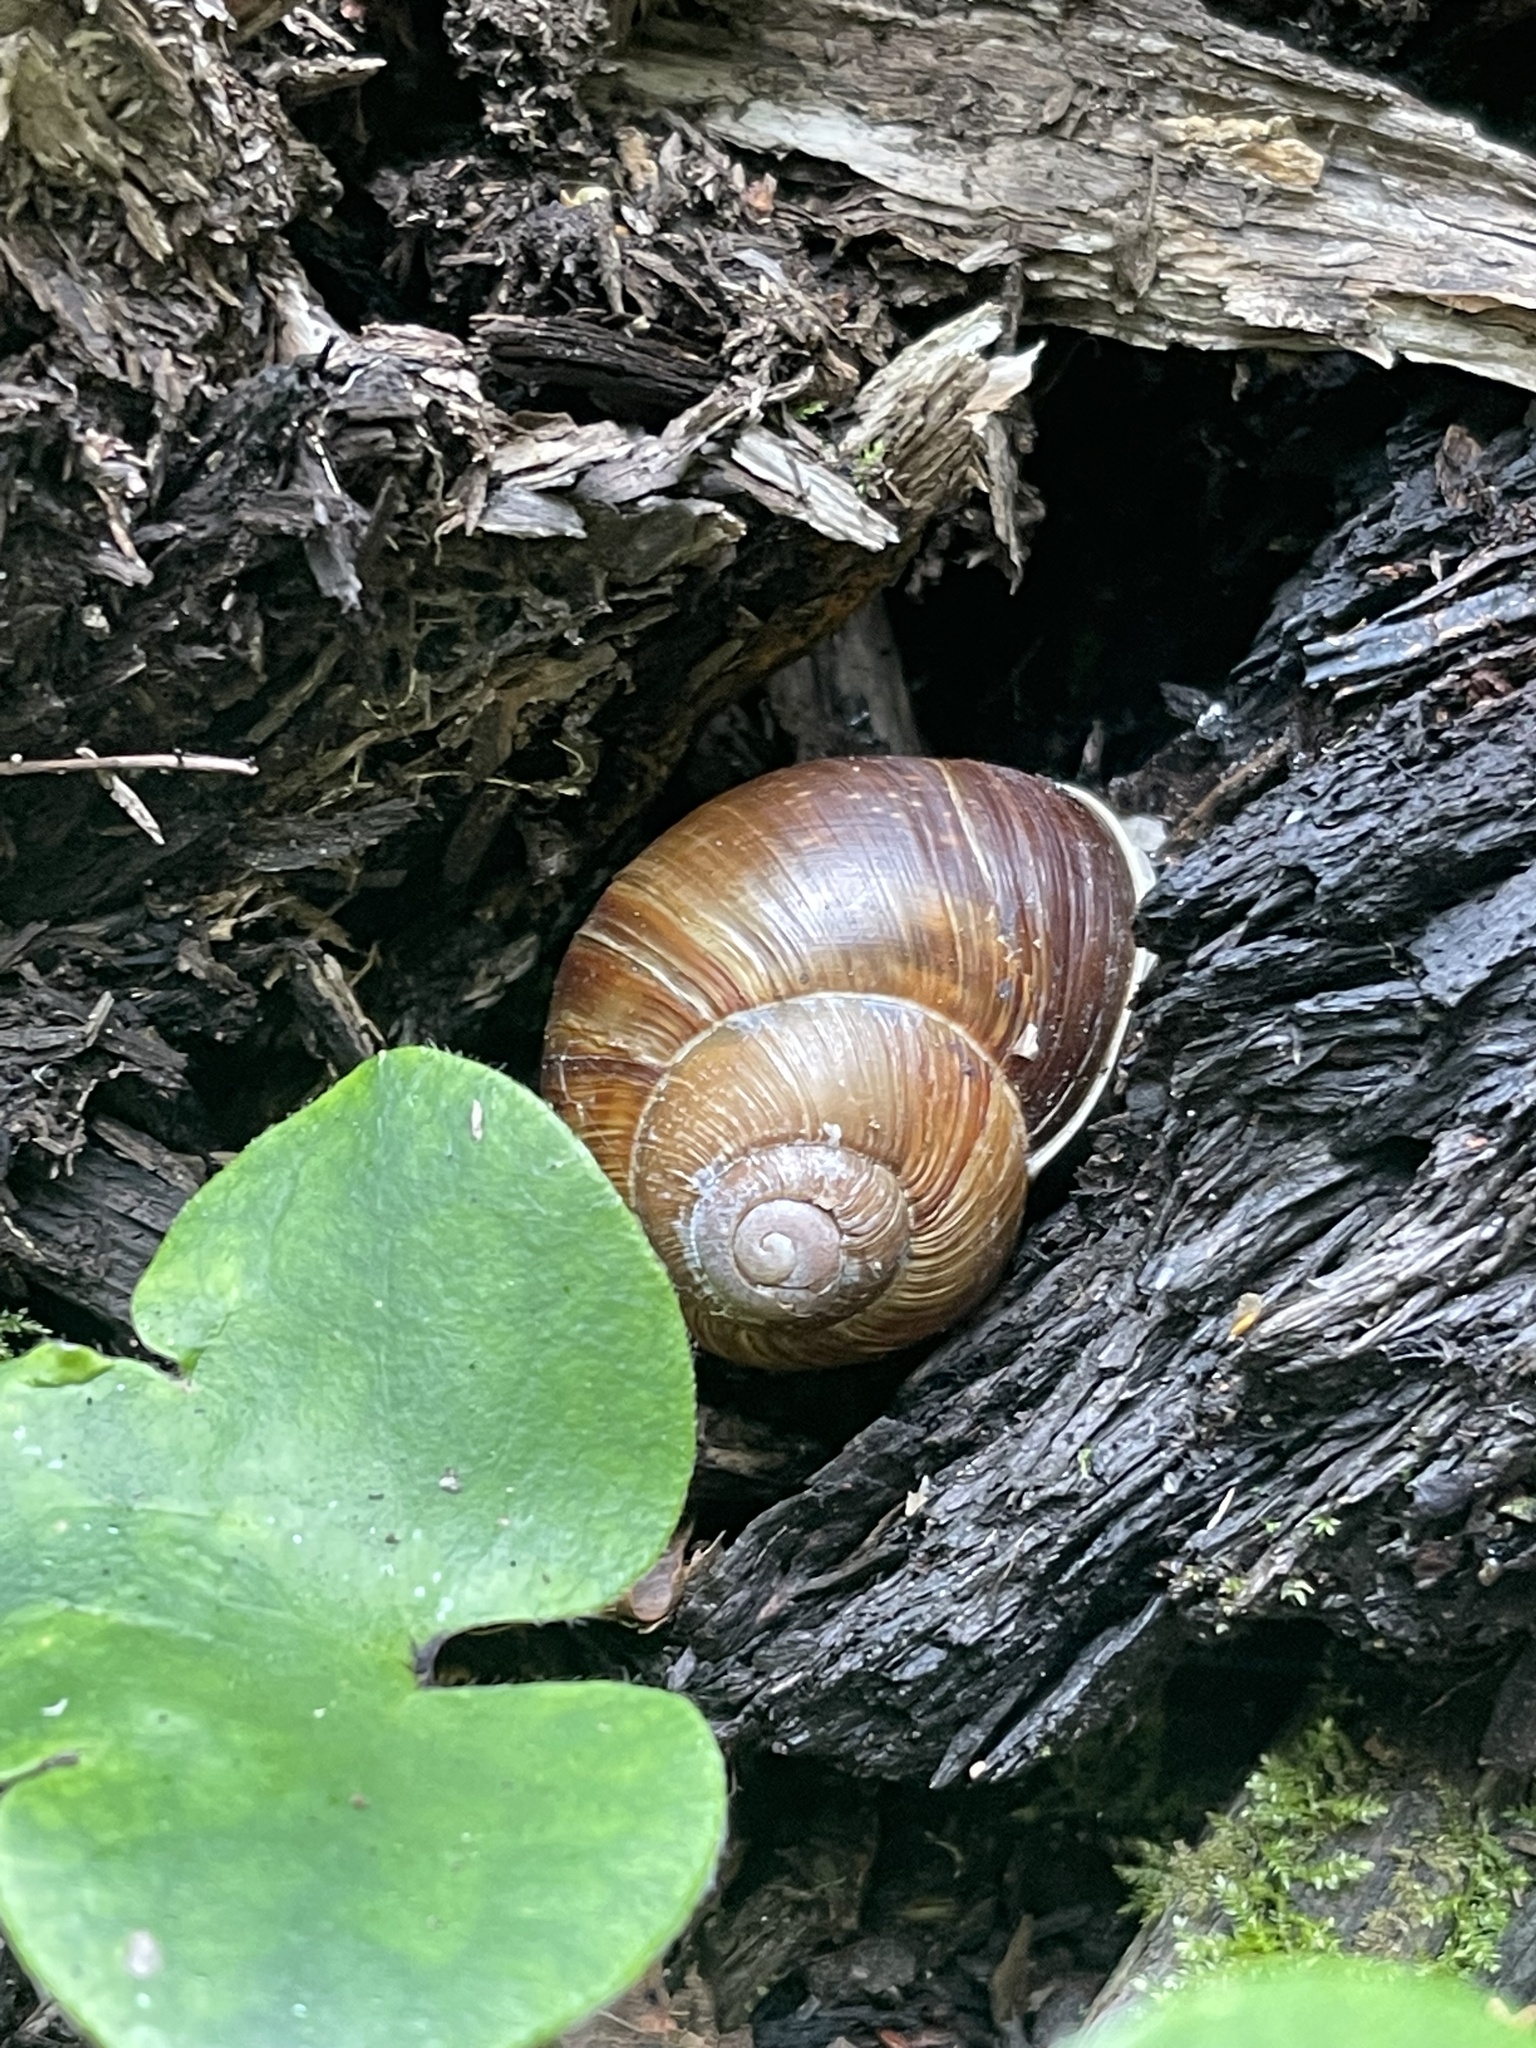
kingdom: Animalia
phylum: Mollusca
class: Gastropoda
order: Stylommatophora
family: Helicidae
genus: Helix
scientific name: Helix pomatia
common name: Roman snail
